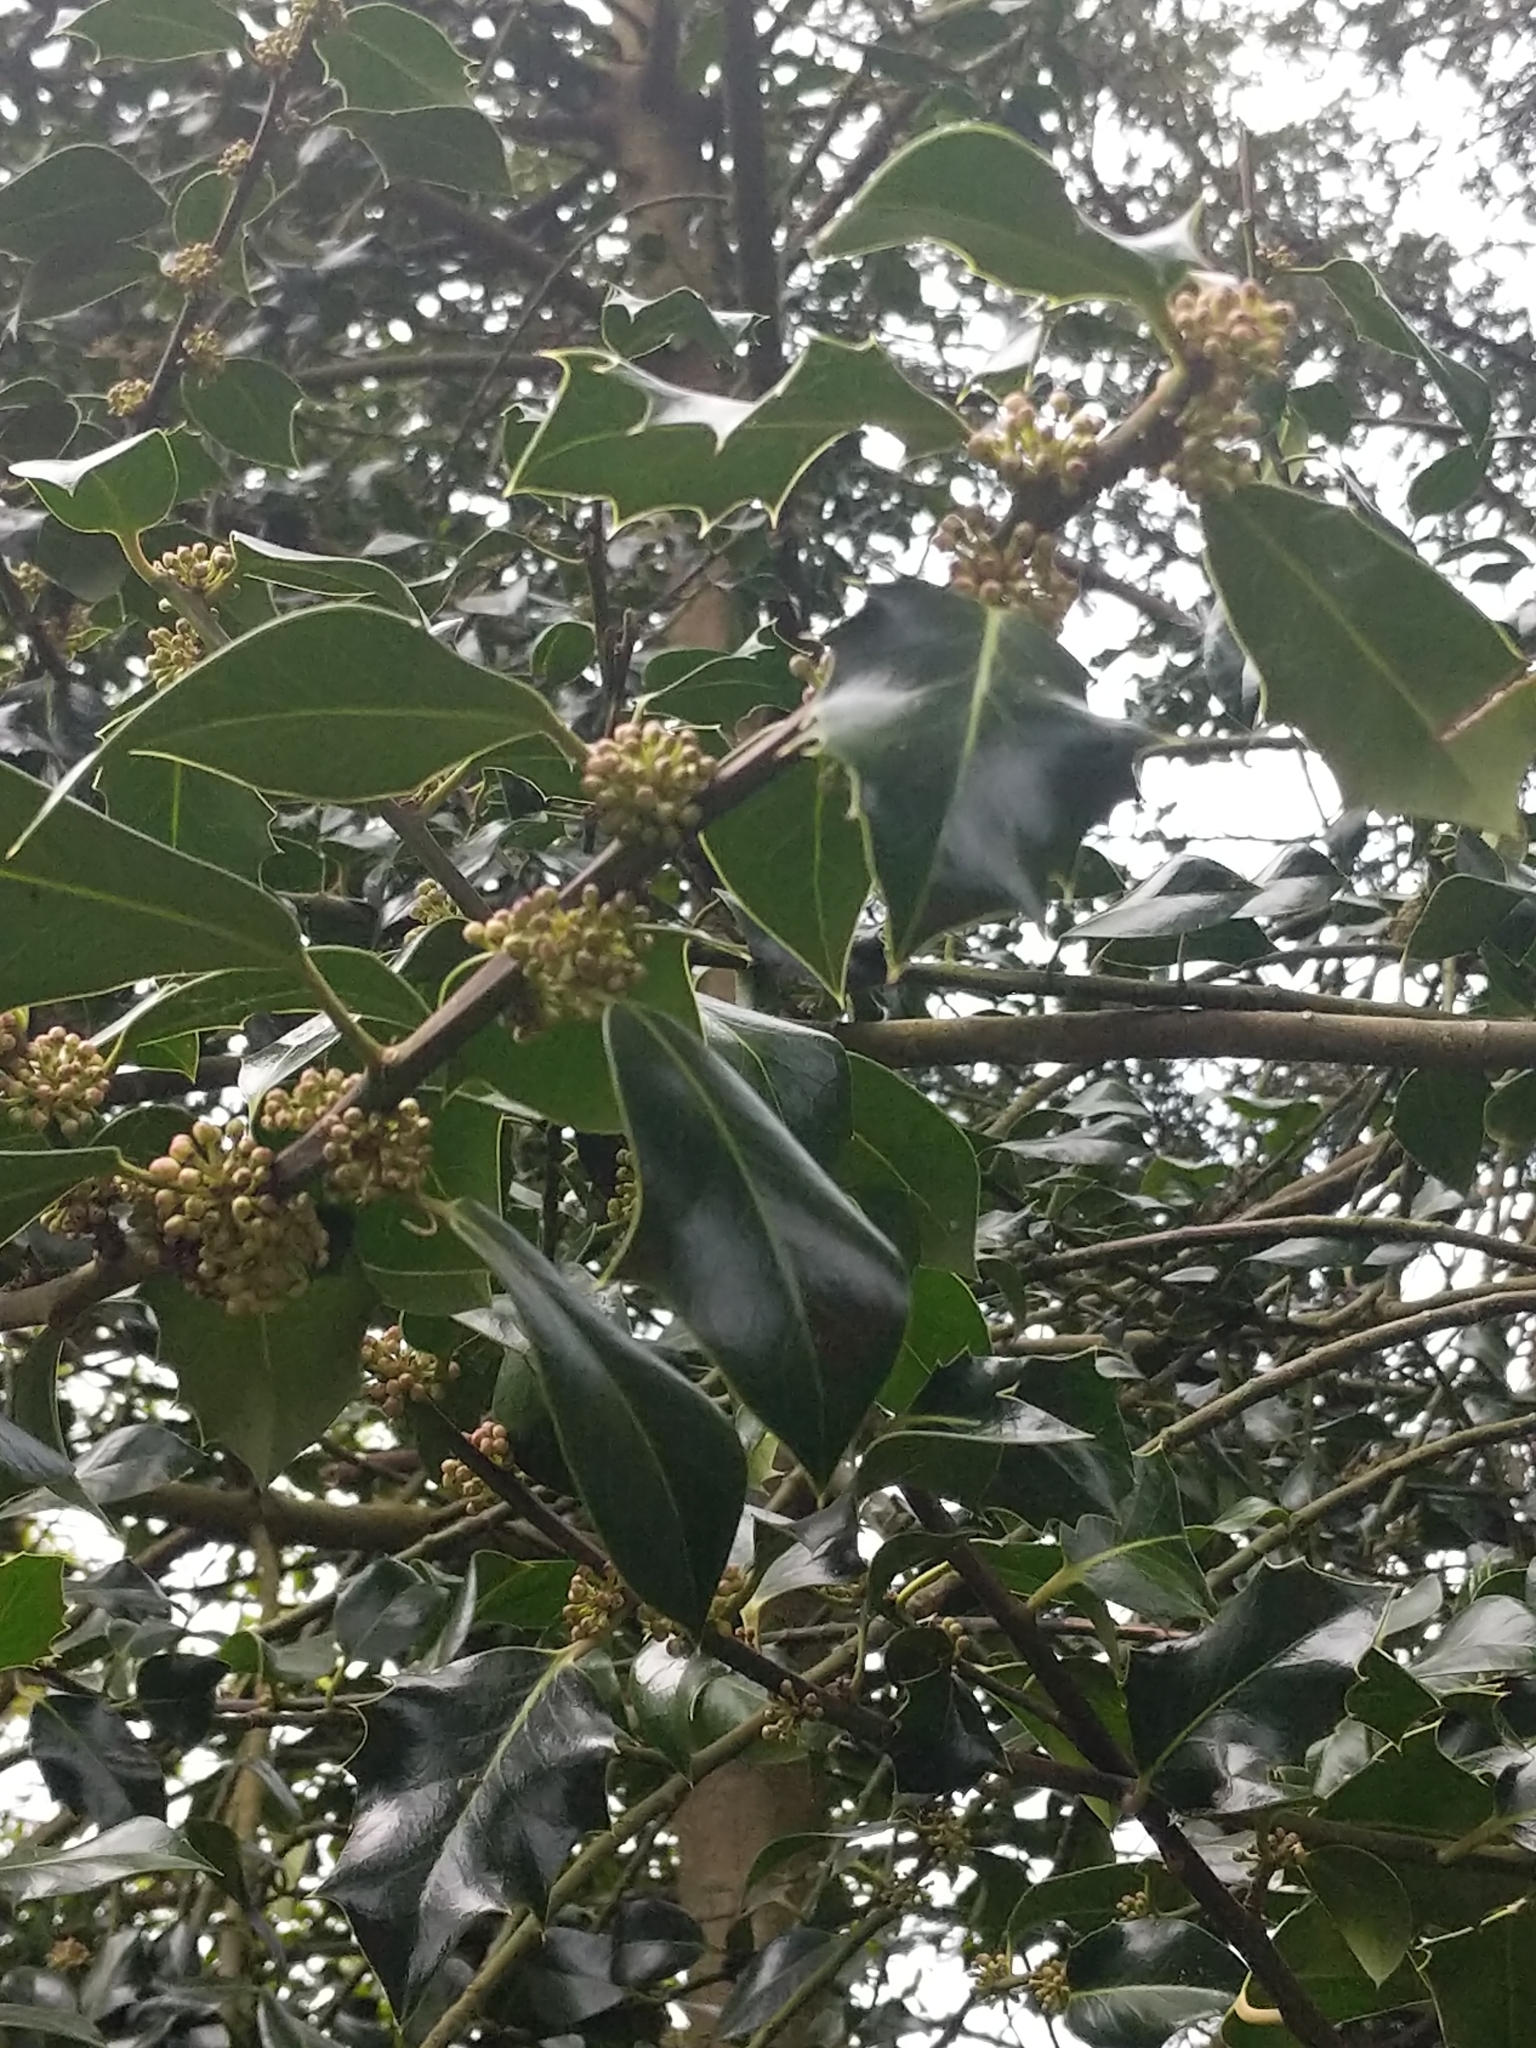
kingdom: Plantae
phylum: Tracheophyta
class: Magnoliopsida
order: Aquifoliales
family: Aquifoliaceae
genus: Ilex
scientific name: Ilex aquifolium
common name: English holly
